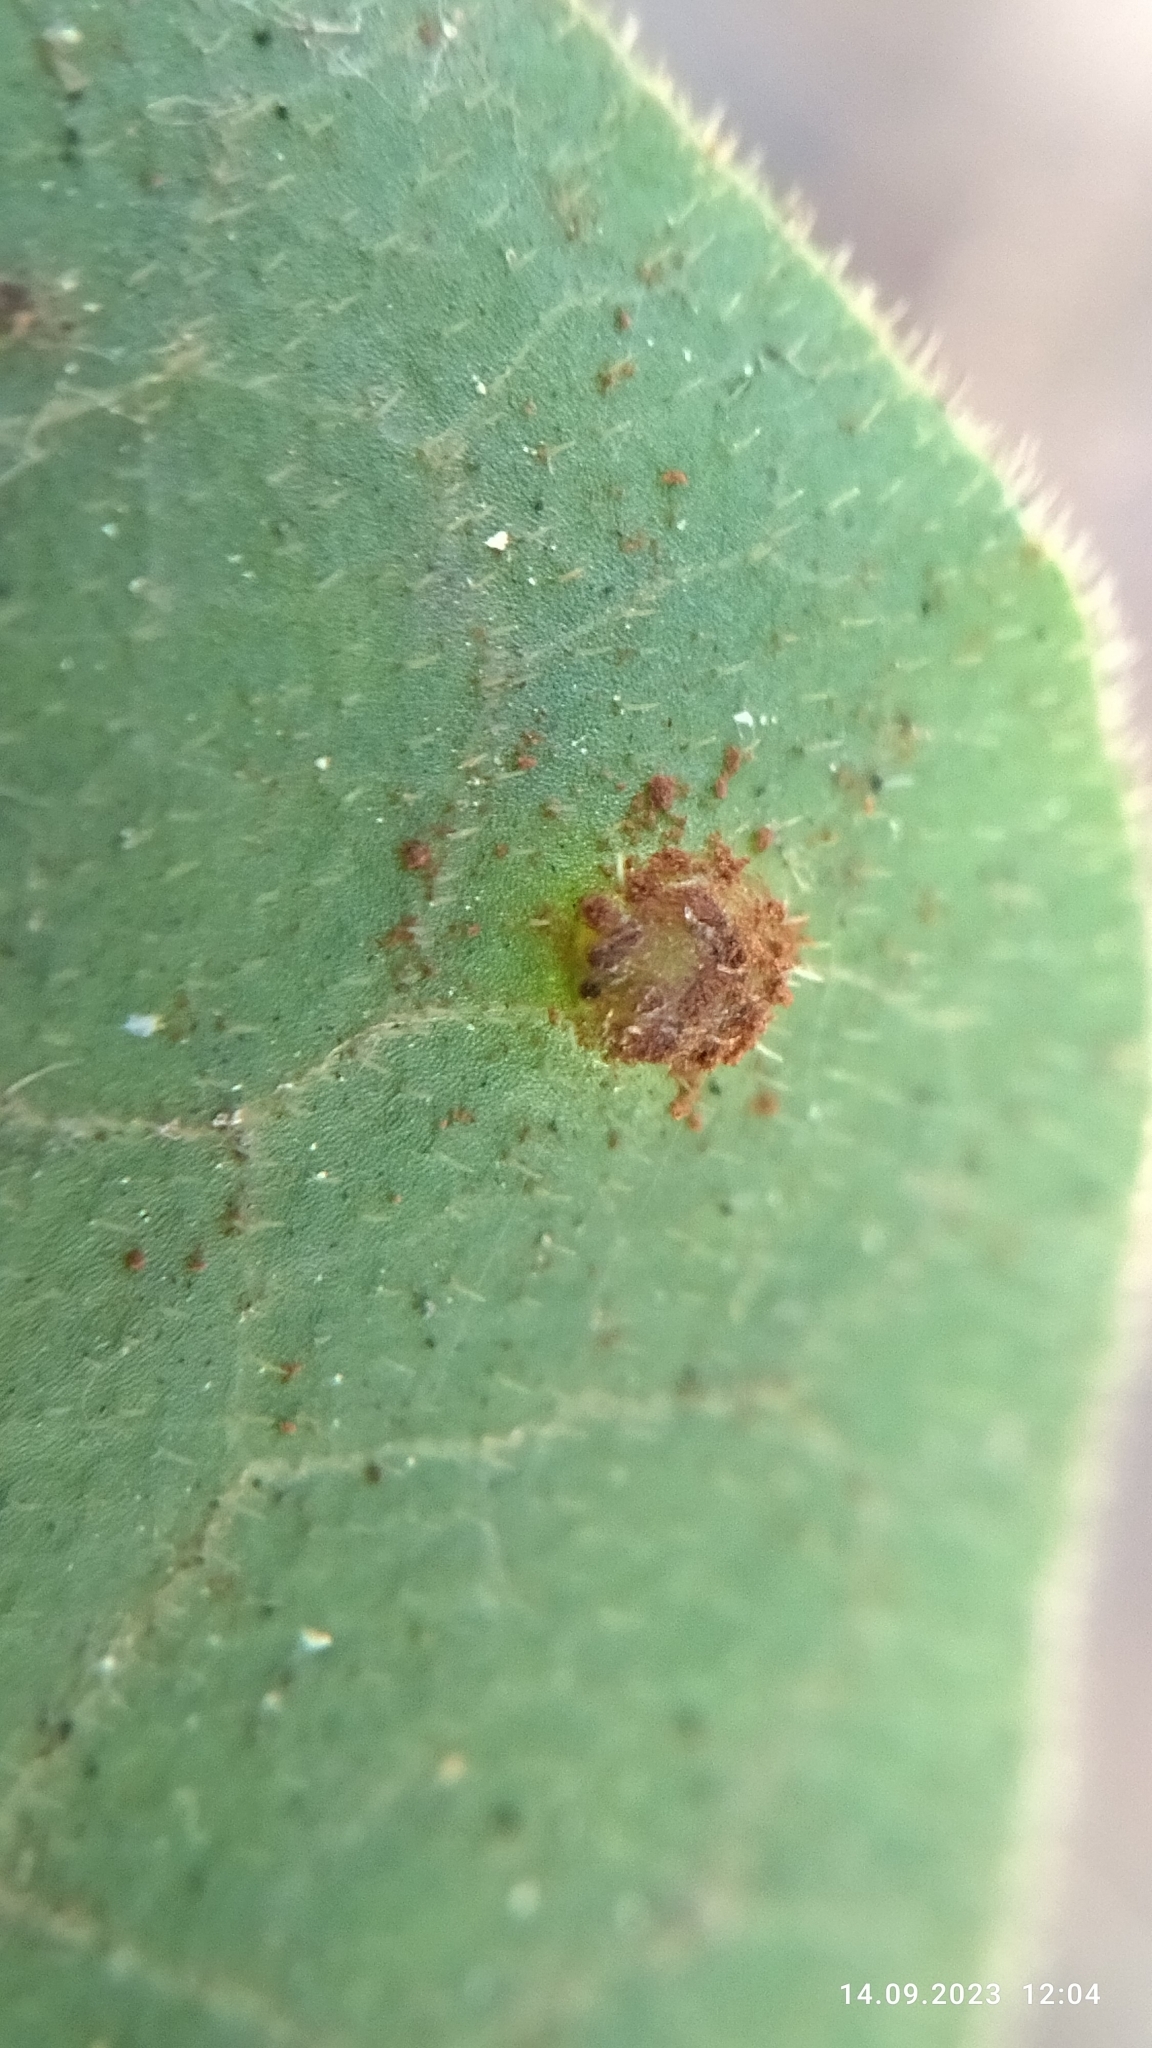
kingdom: Fungi
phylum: Basidiomycota
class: Pucciniomycetes
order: Pucciniales
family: Pucciniaceae
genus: Puccinia
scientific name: Puccinia asarina
